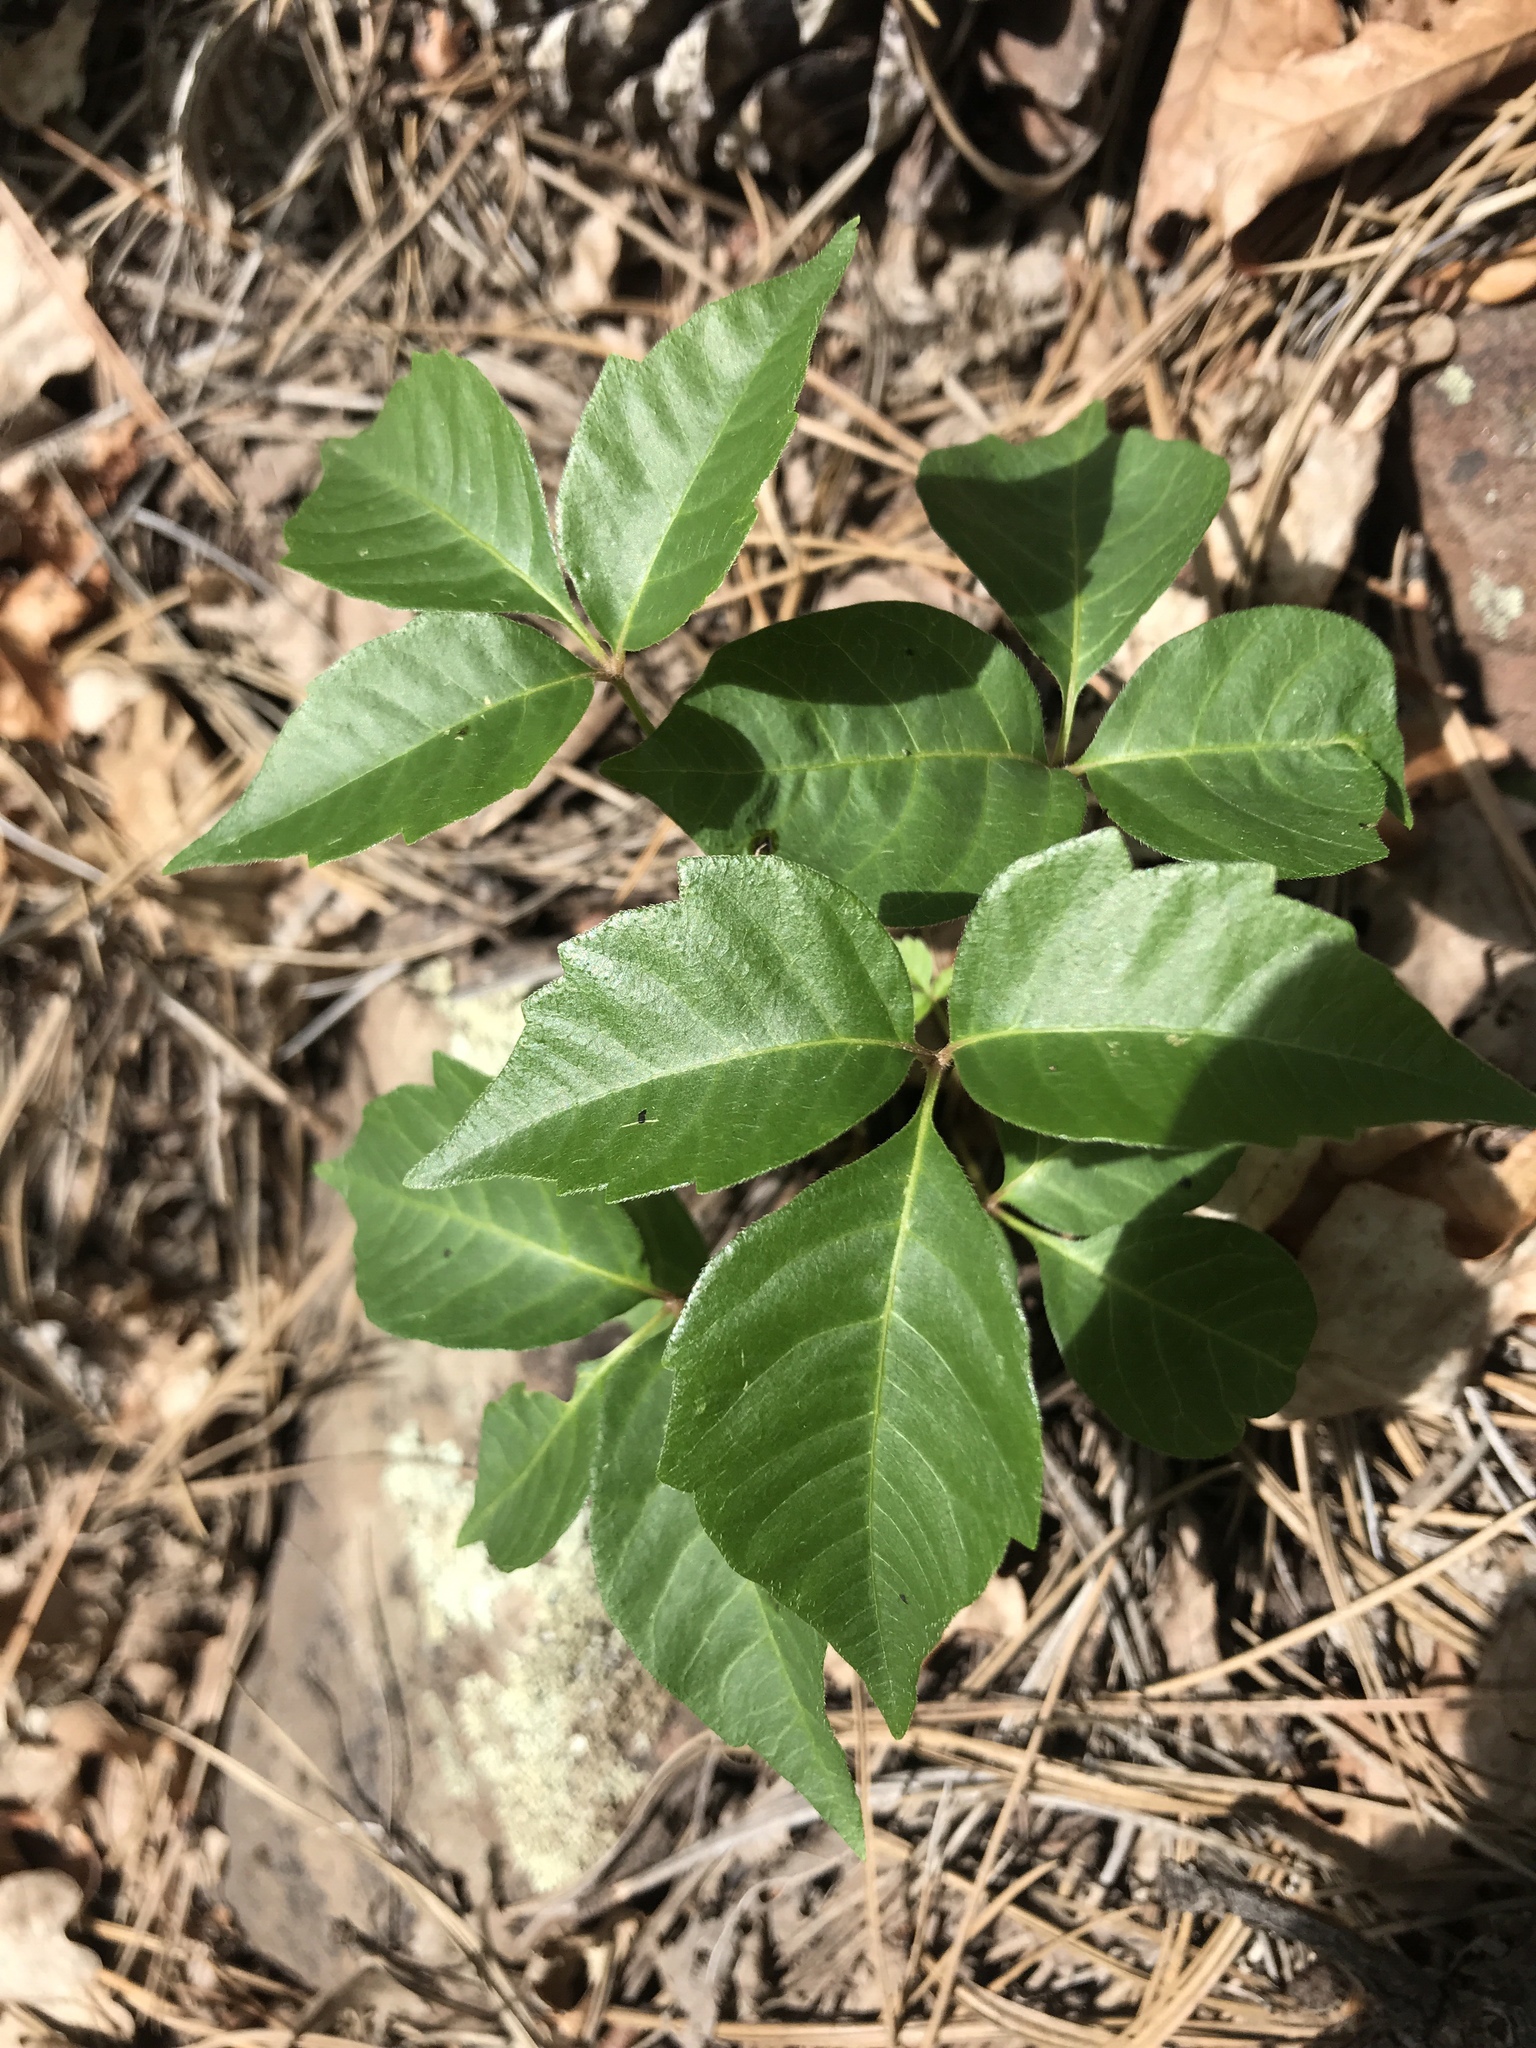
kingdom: Plantae
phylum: Tracheophyta
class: Magnoliopsida
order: Sapindales
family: Anacardiaceae
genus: Toxicodendron
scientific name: Toxicodendron rydbergii
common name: Rydberg's poison-ivy
